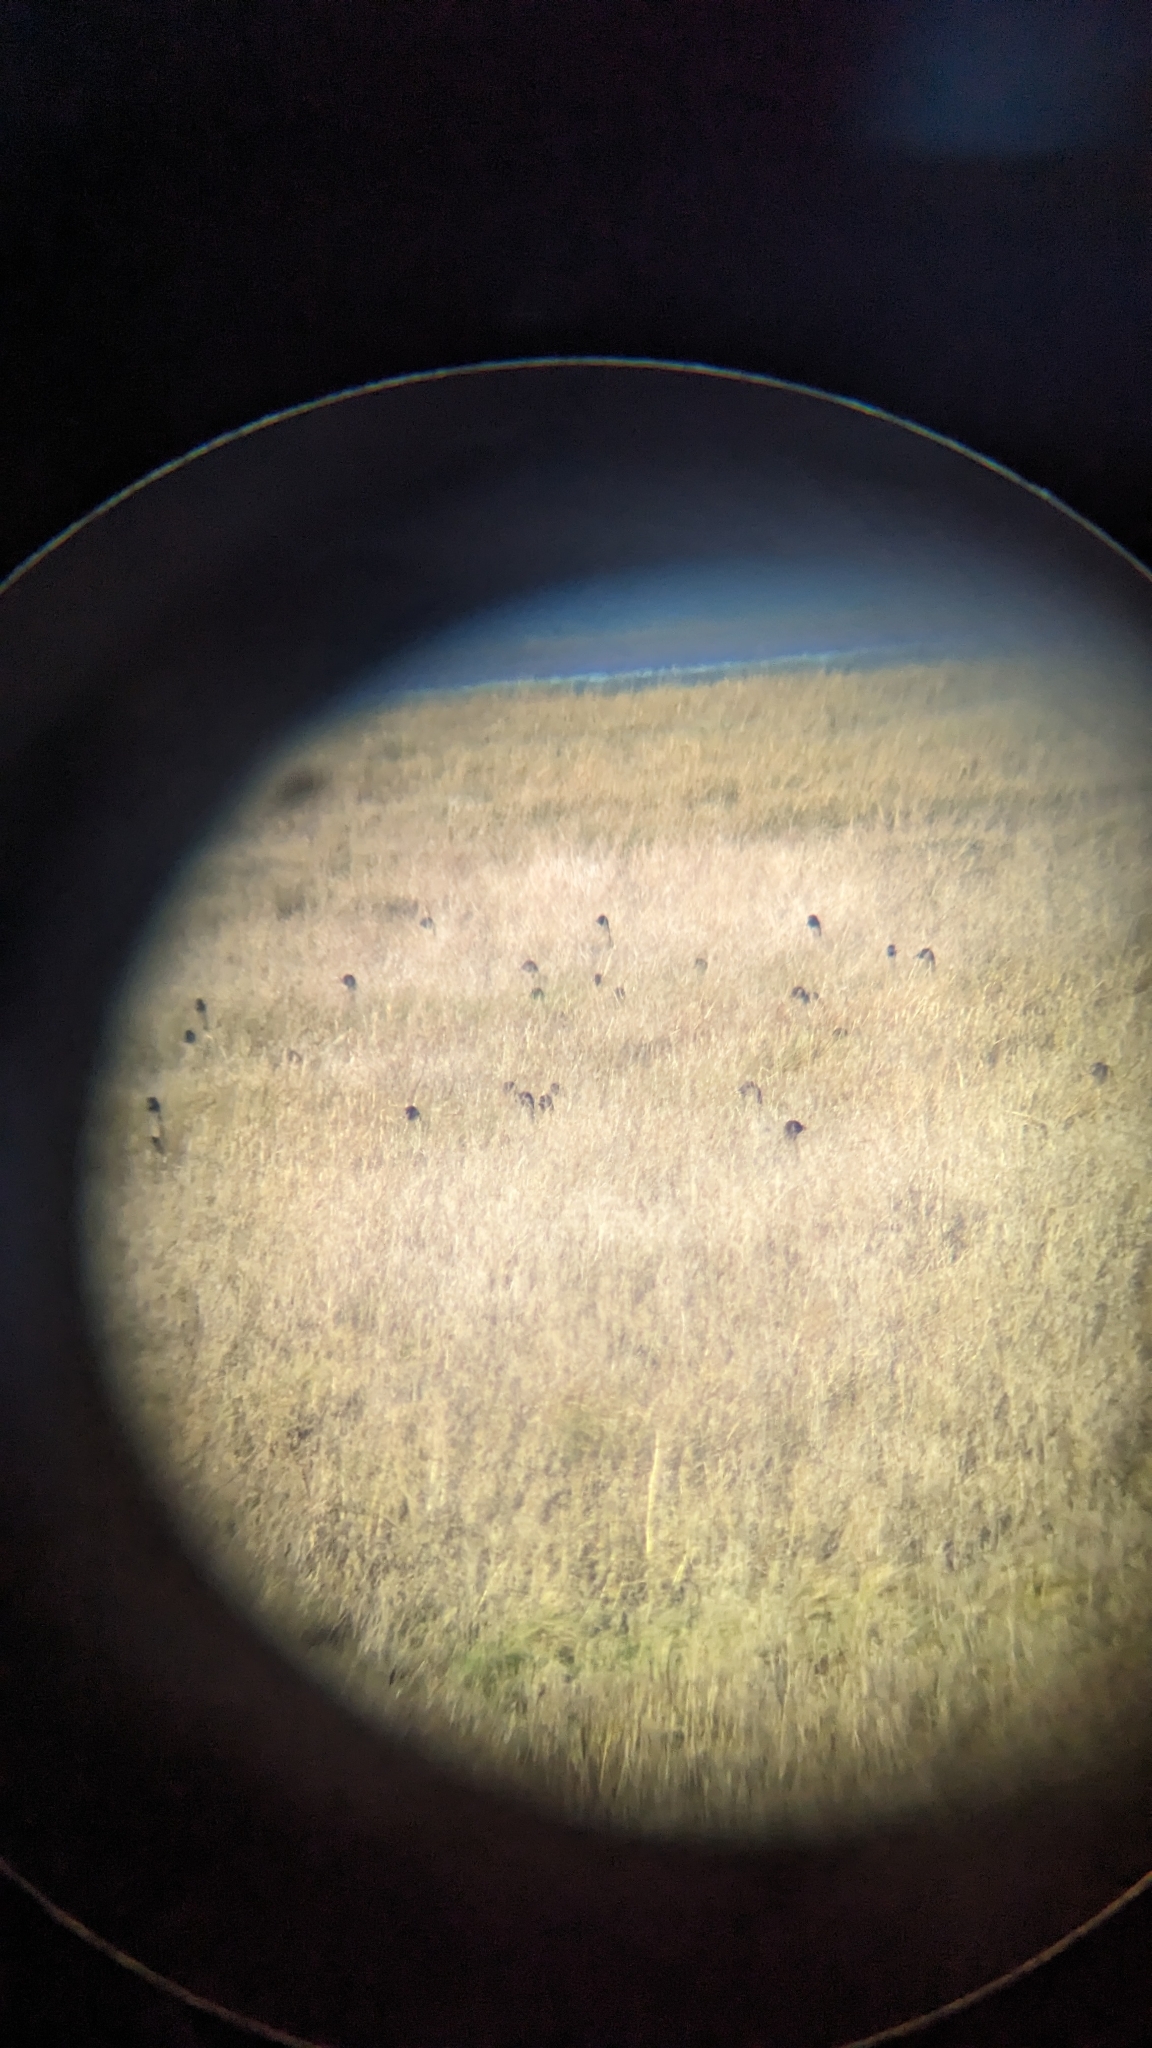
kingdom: Animalia
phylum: Chordata
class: Aves
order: Anseriformes
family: Anatidae
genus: Anser
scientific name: Anser brachyrhynchus
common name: Pink-footed goose
